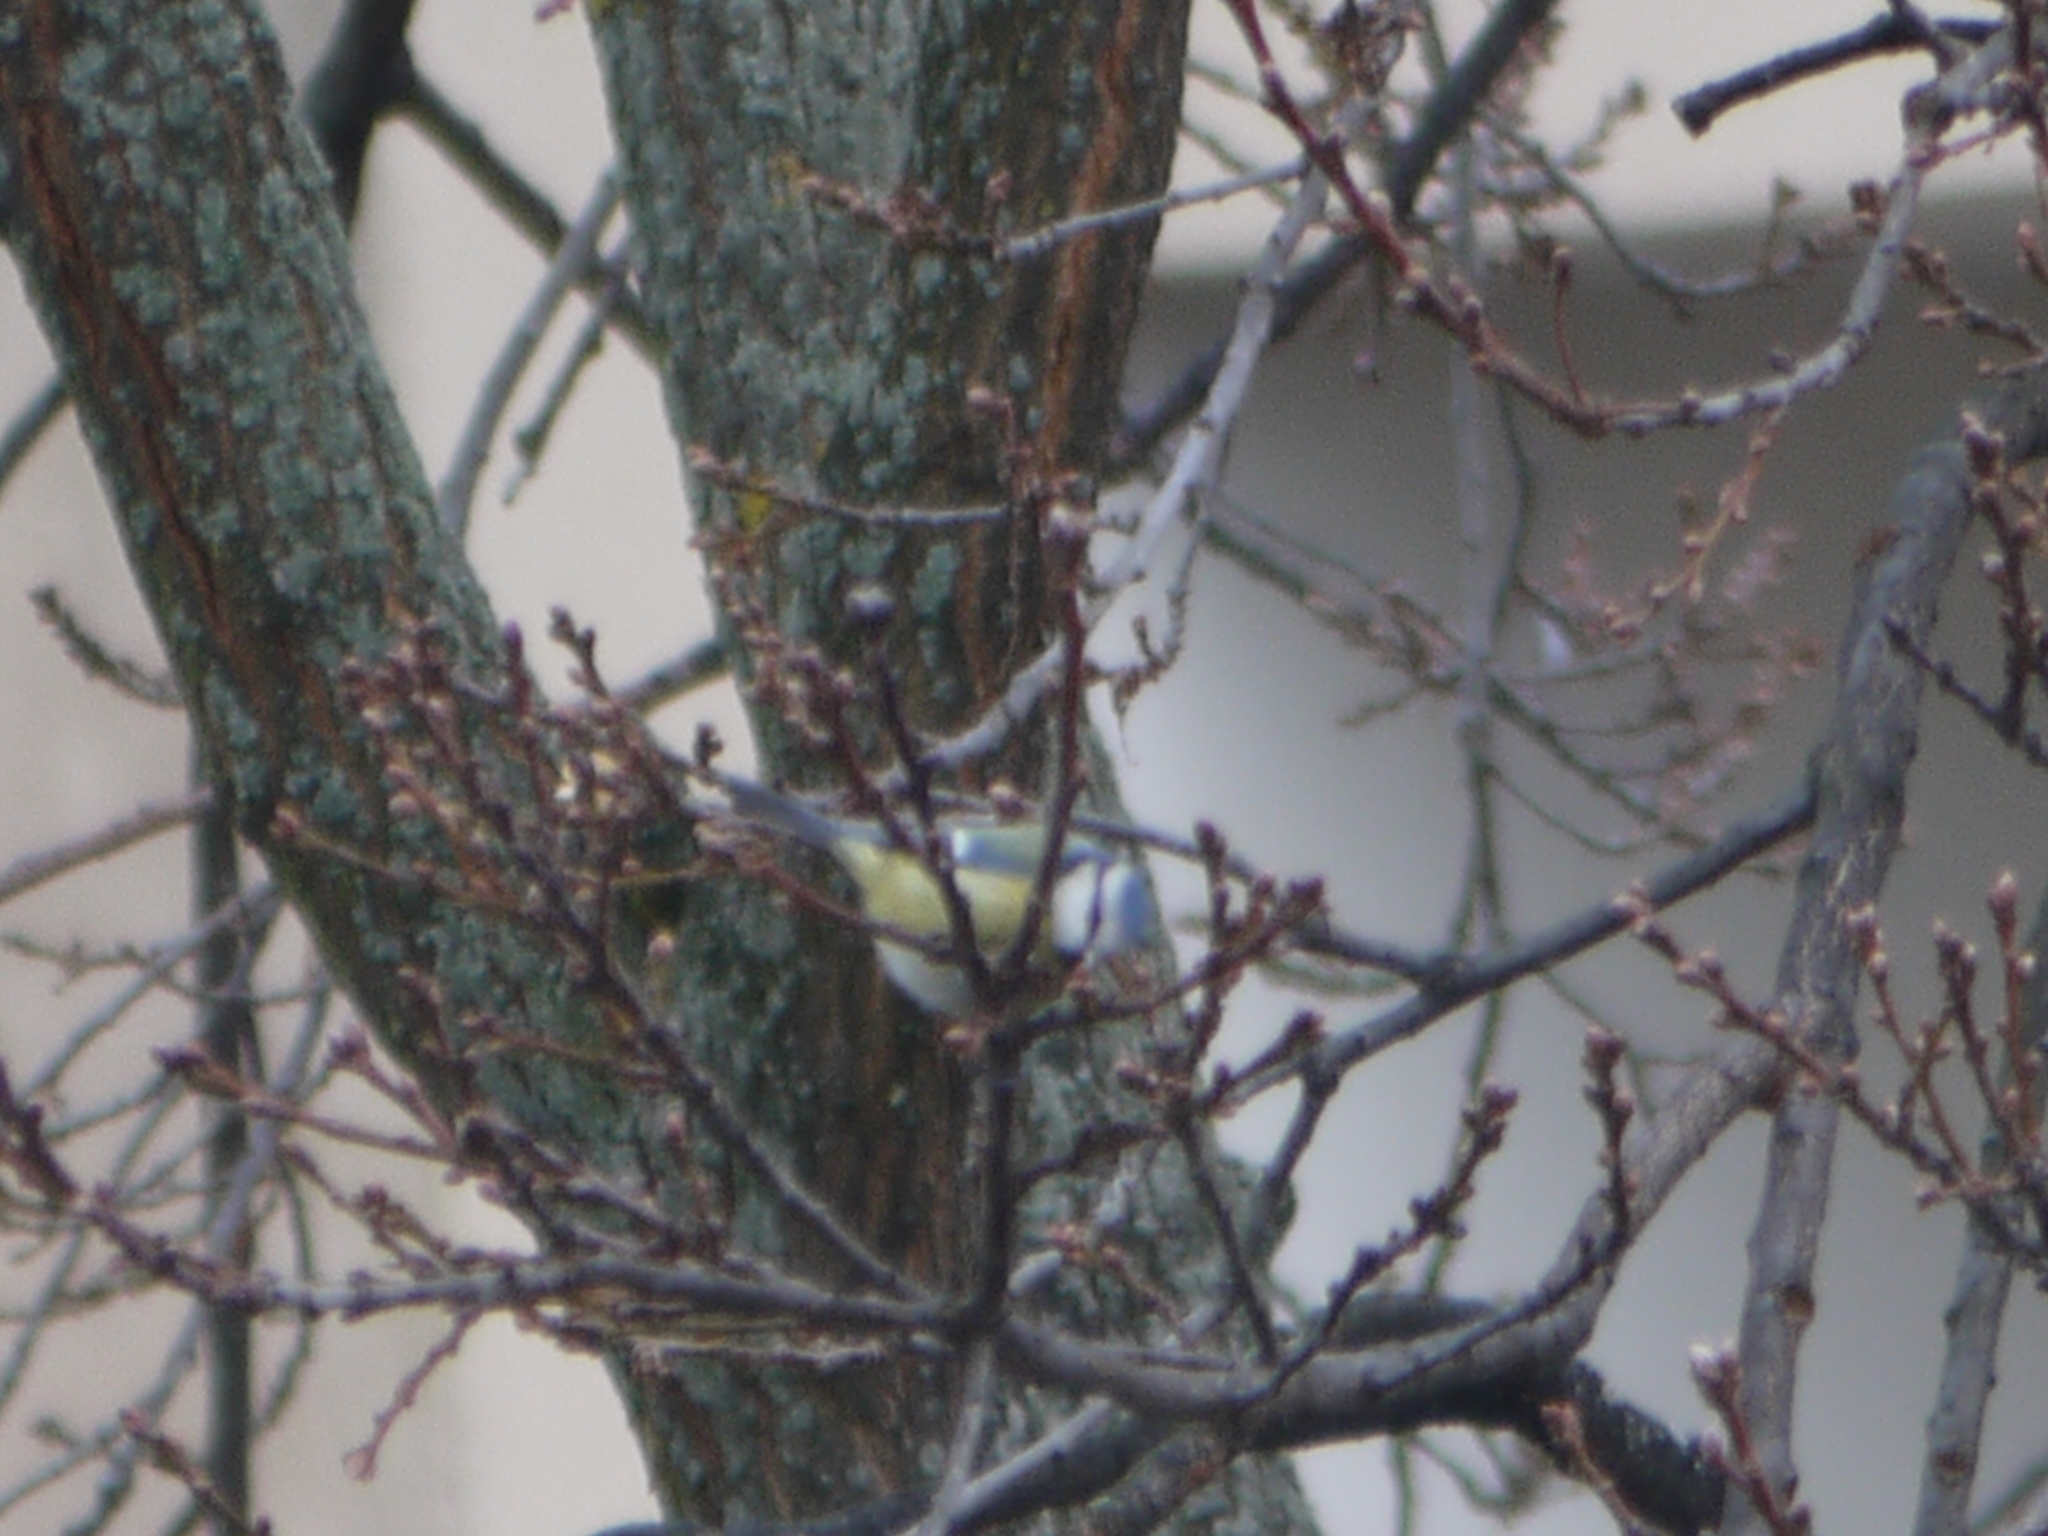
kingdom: Animalia
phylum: Chordata
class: Aves
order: Passeriformes
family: Paridae
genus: Cyanistes
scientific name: Cyanistes caeruleus
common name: Eurasian blue tit
